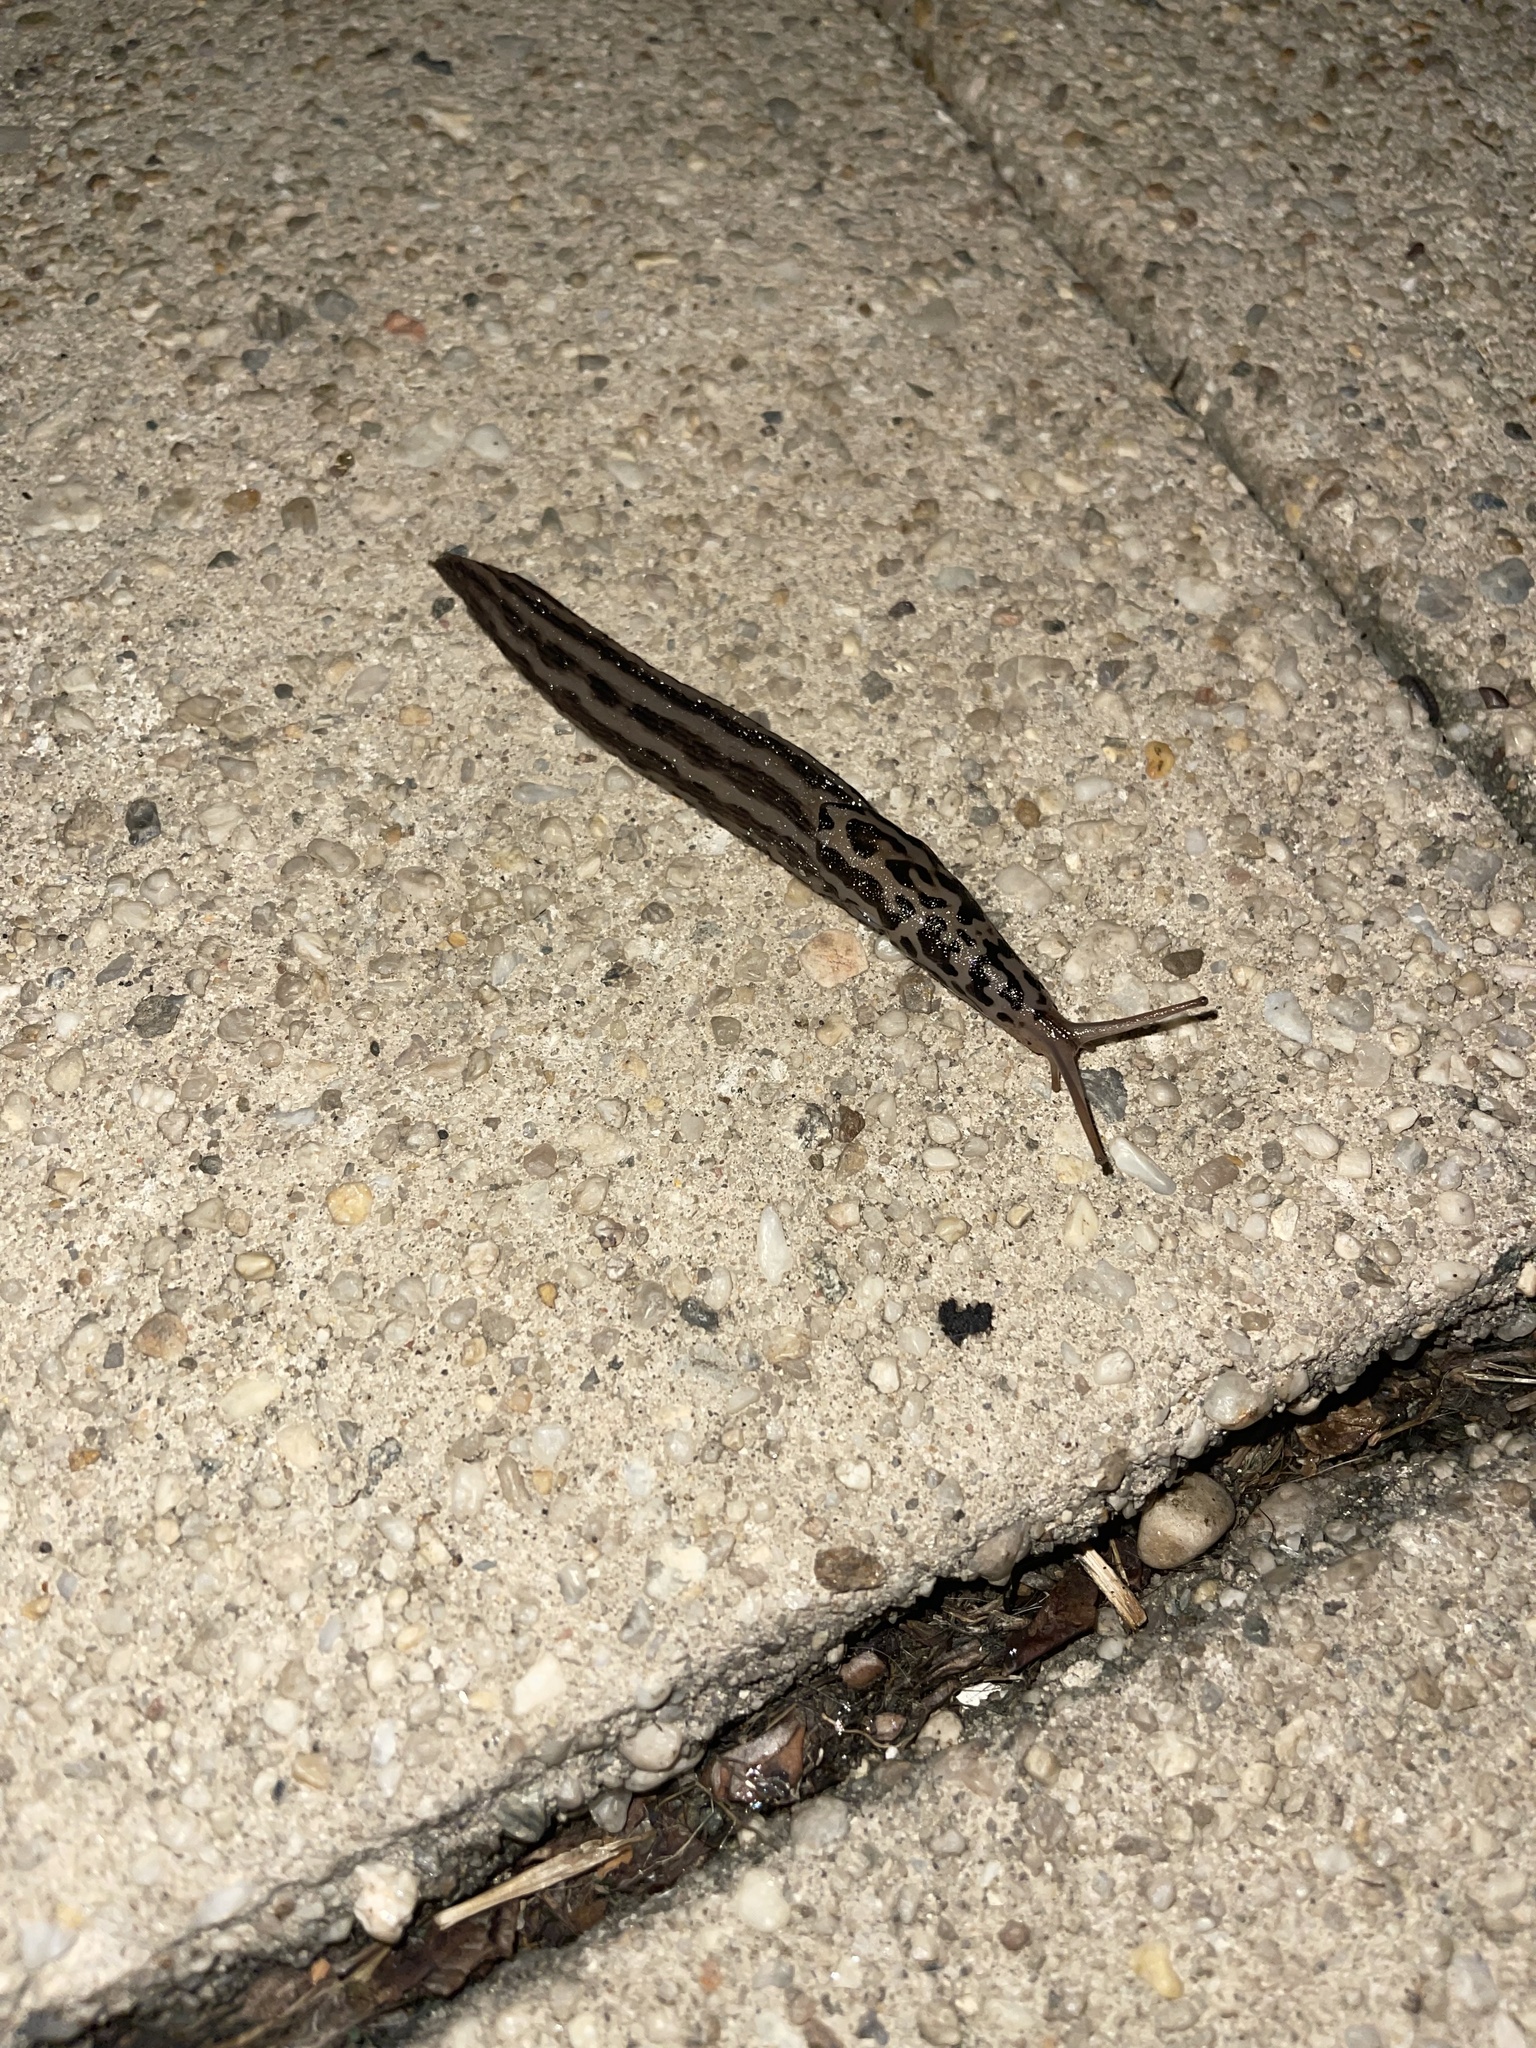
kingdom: Animalia
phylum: Mollusca
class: Gastropoda
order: Stylommatophora
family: Limacidae
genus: Limax
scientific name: Limax maximus
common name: Great grey slug
